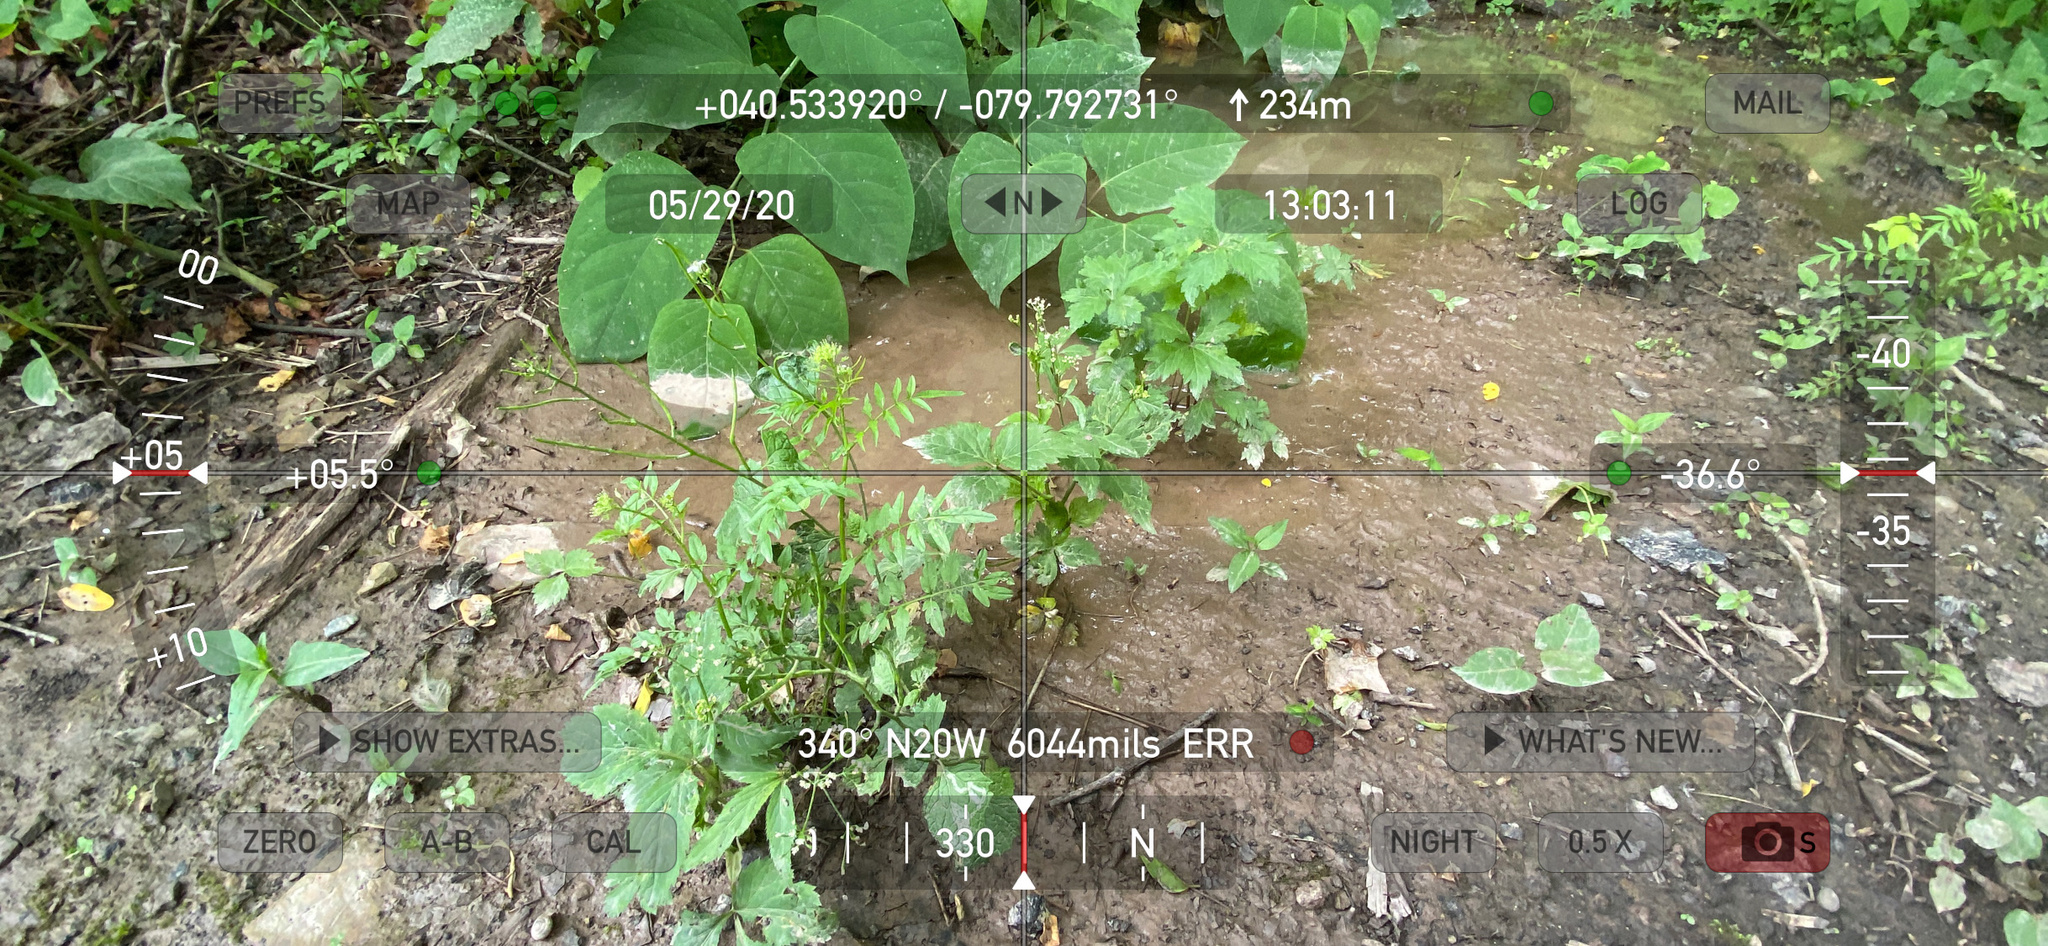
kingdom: Plantae
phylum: Tracheophyta
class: Magnoliopsida
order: Apiales
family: Apiaceae
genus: Cryptotaenia
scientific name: Cryptotaenia canadensis
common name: Honewort
